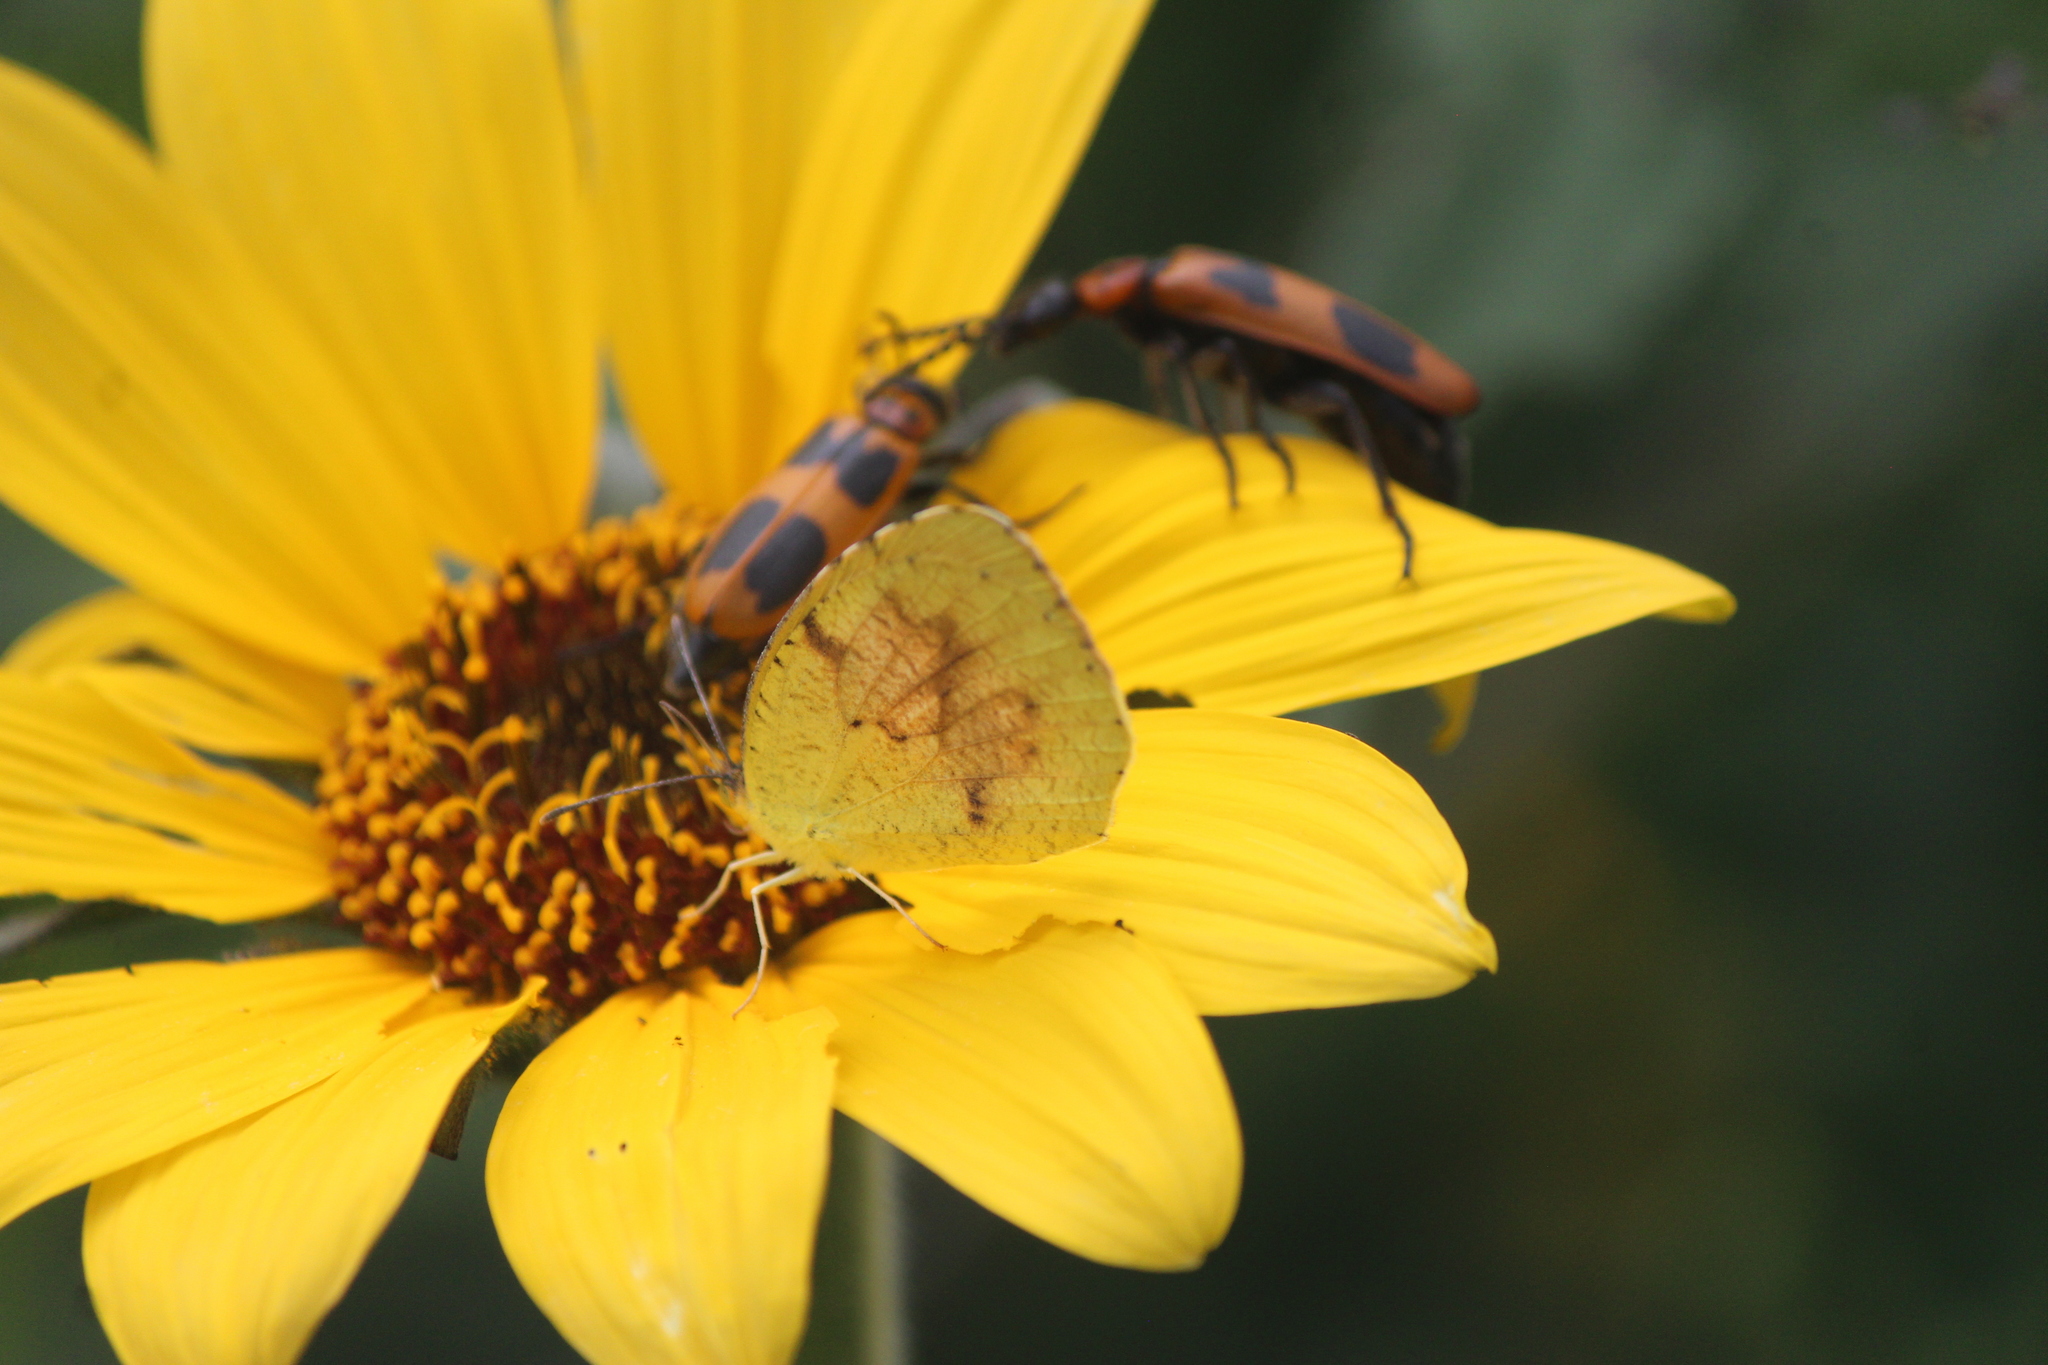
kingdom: Animalia
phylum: Arthropoda
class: Insecta
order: Lepidoptera
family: Pieridae
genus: Abaeis
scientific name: Abaeis nicippe
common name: Sleepy orange
